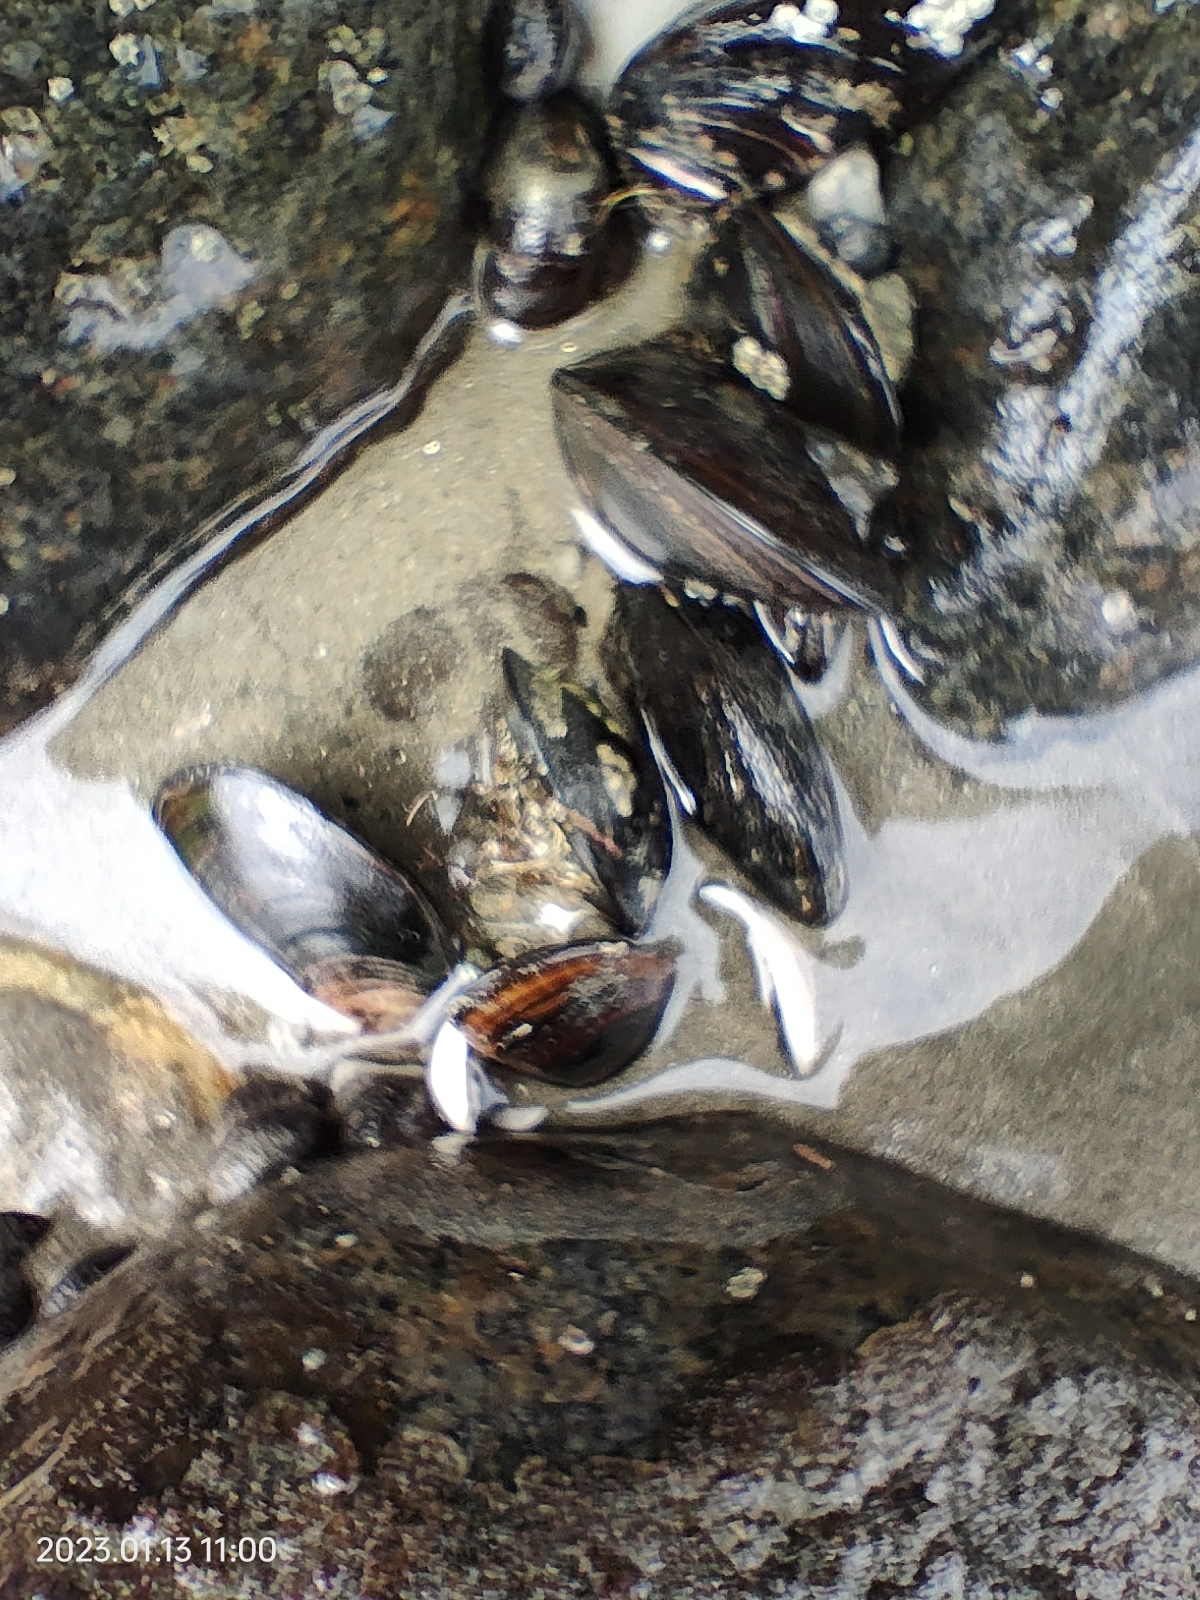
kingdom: Animalia
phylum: Mollusca
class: Bivalvia
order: Mytilida
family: Mytilidae
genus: Perna
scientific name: Perna canaliculus
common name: New zealand greenshelltm
